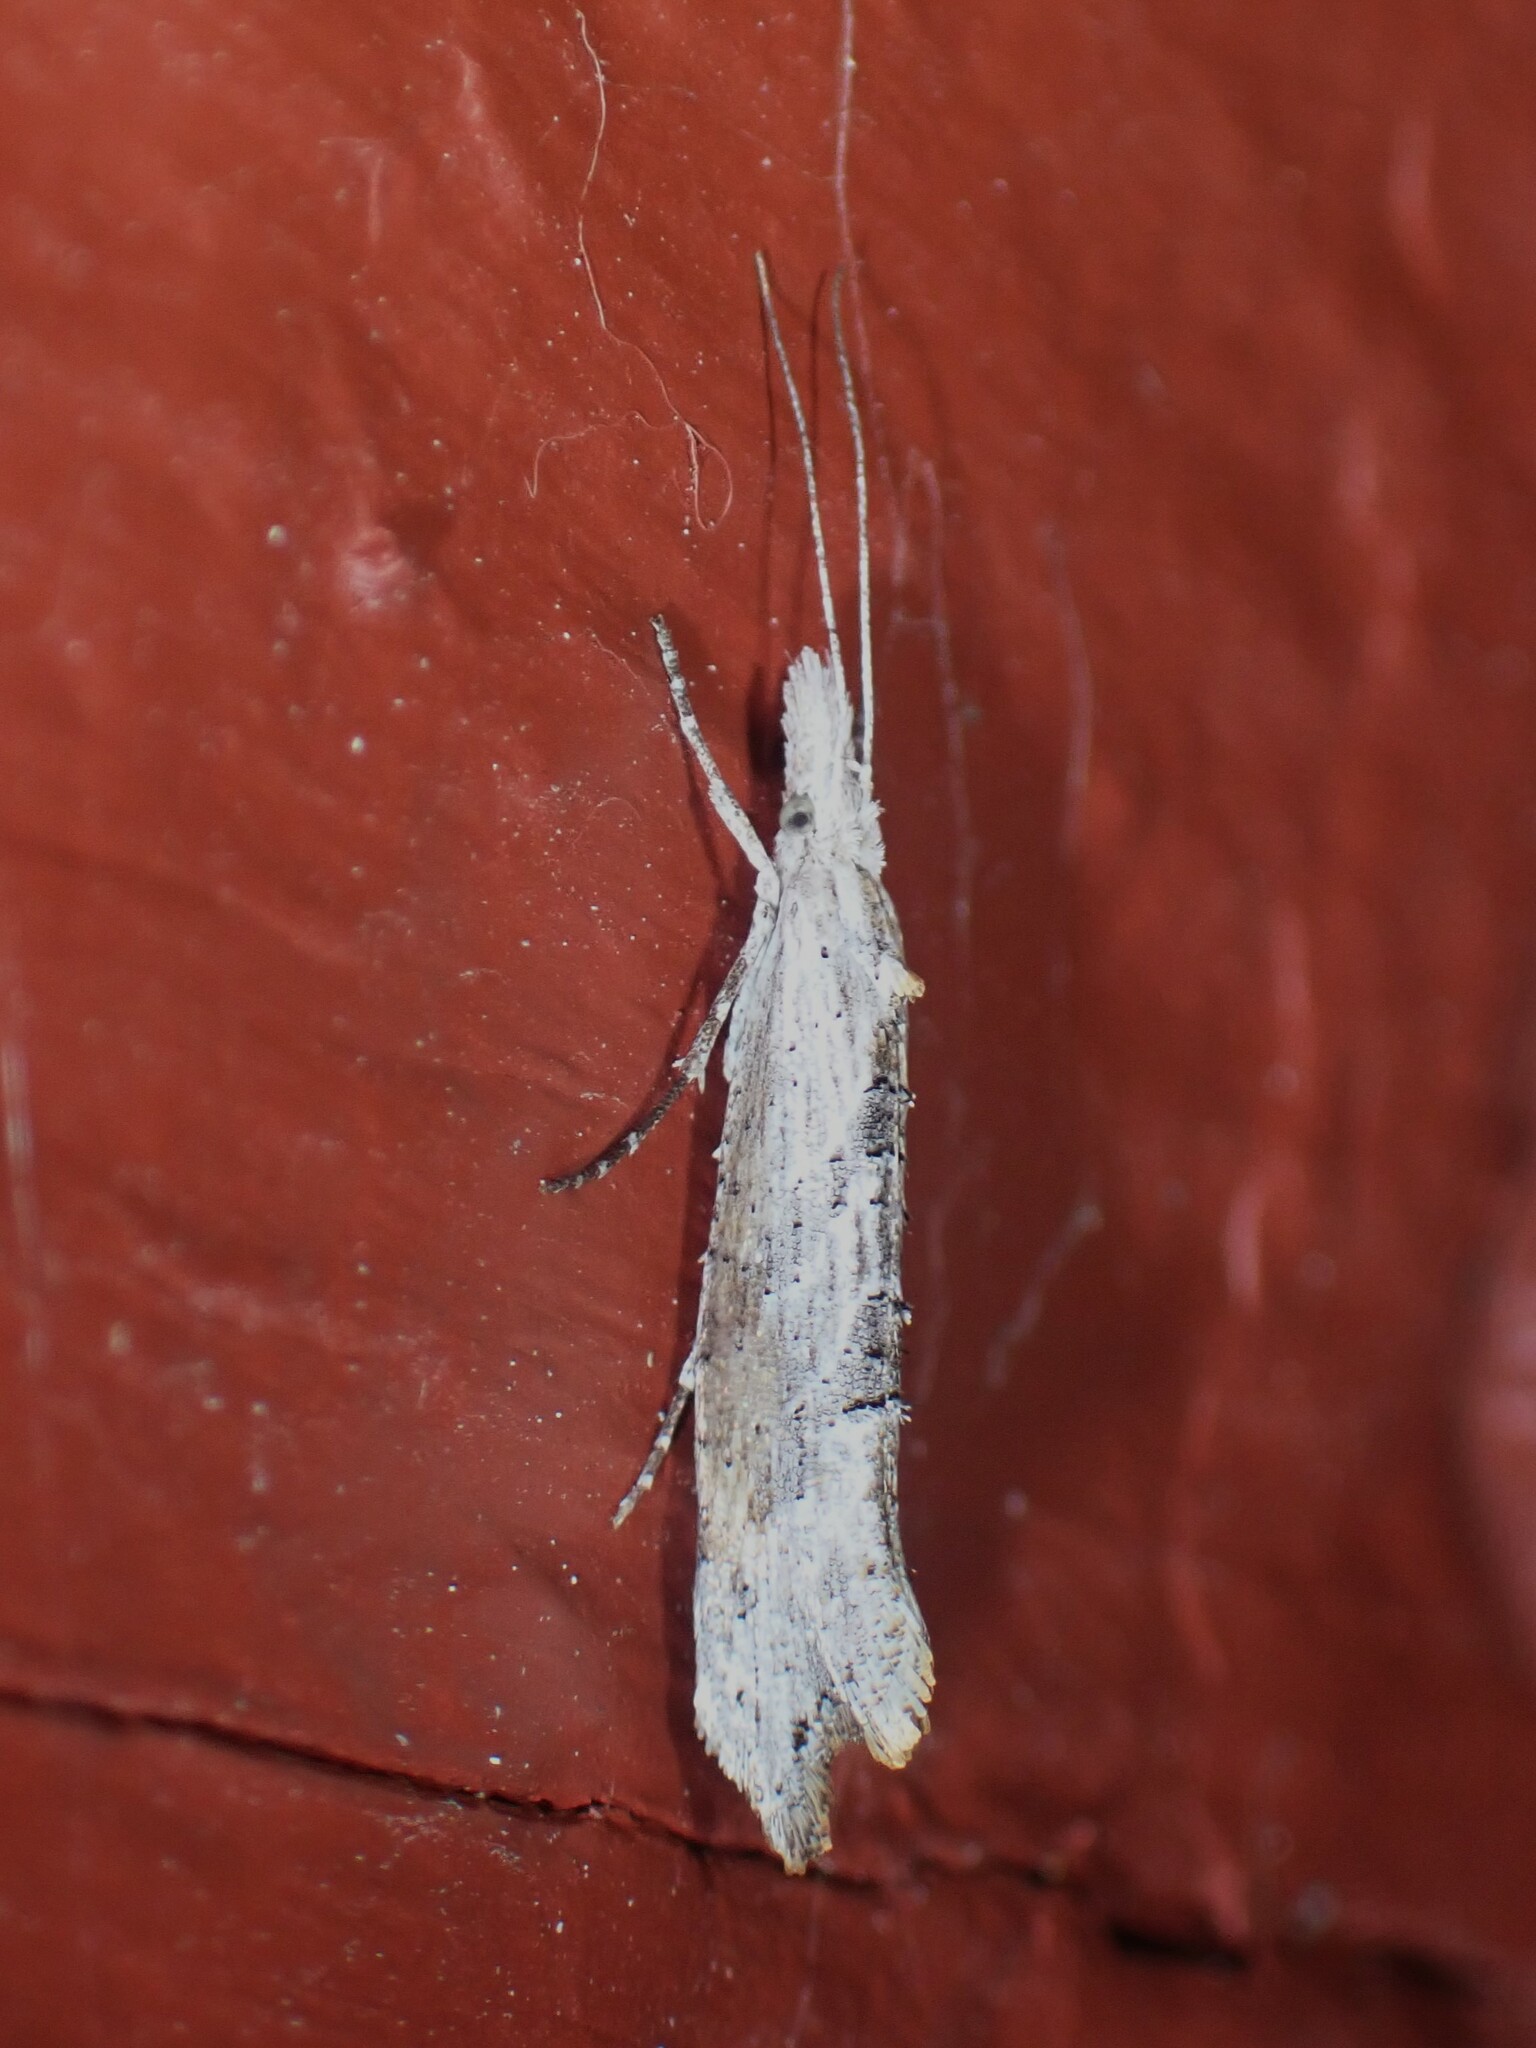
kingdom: Animalia
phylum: Arthropoda
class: Insecta
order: Lepidoptera
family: Ypsolophidae
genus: Ypsolopha
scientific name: Ypsolopha falciferella
